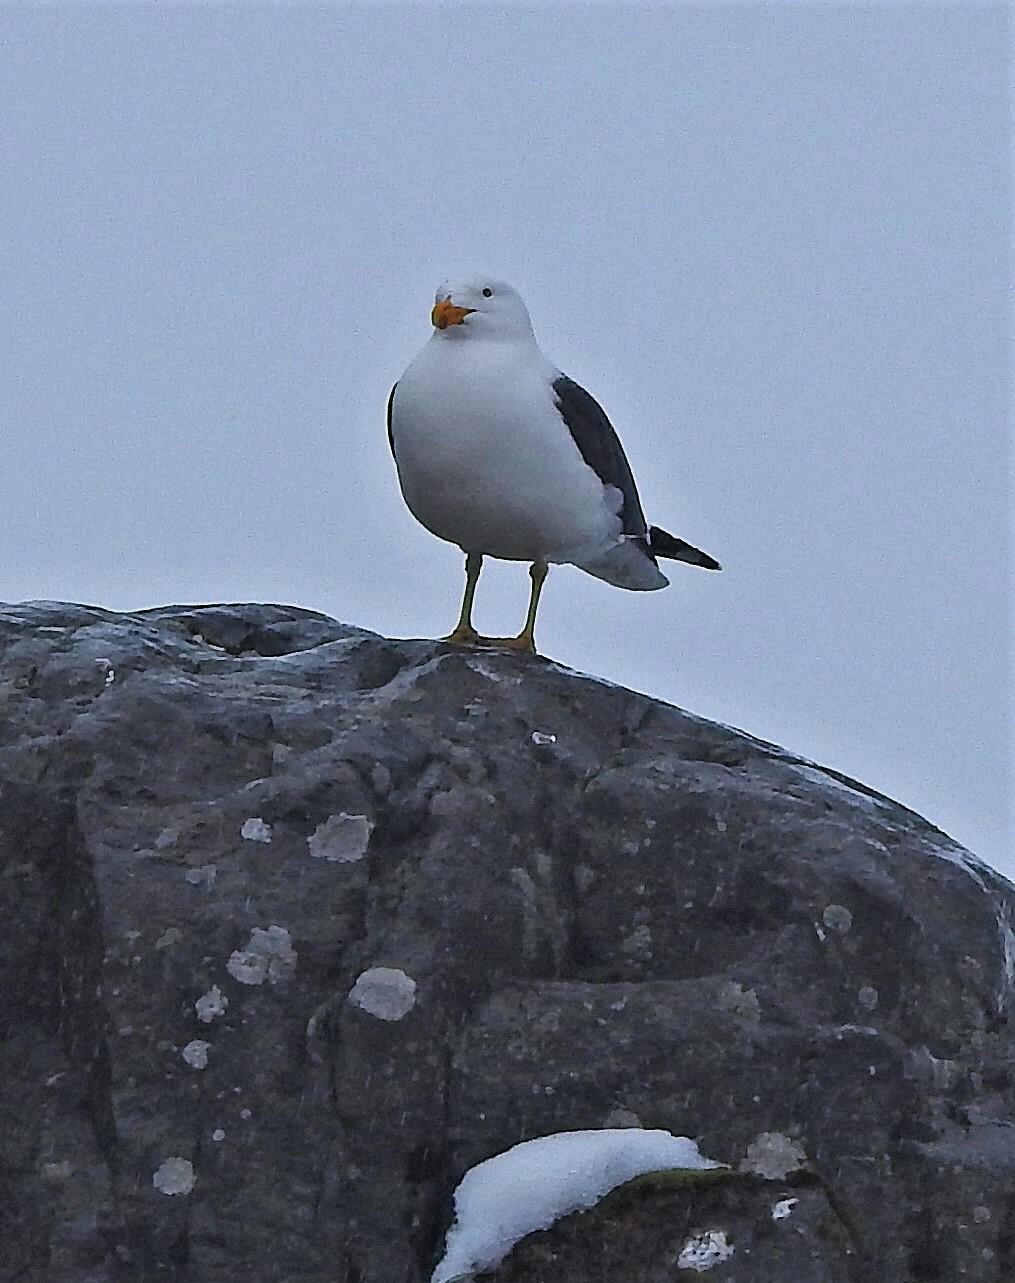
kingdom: Animalia
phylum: Chordata
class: Aves
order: Charadriiformes
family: Laridae
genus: Larus
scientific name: Larus dominicanus
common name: Kelp gull
